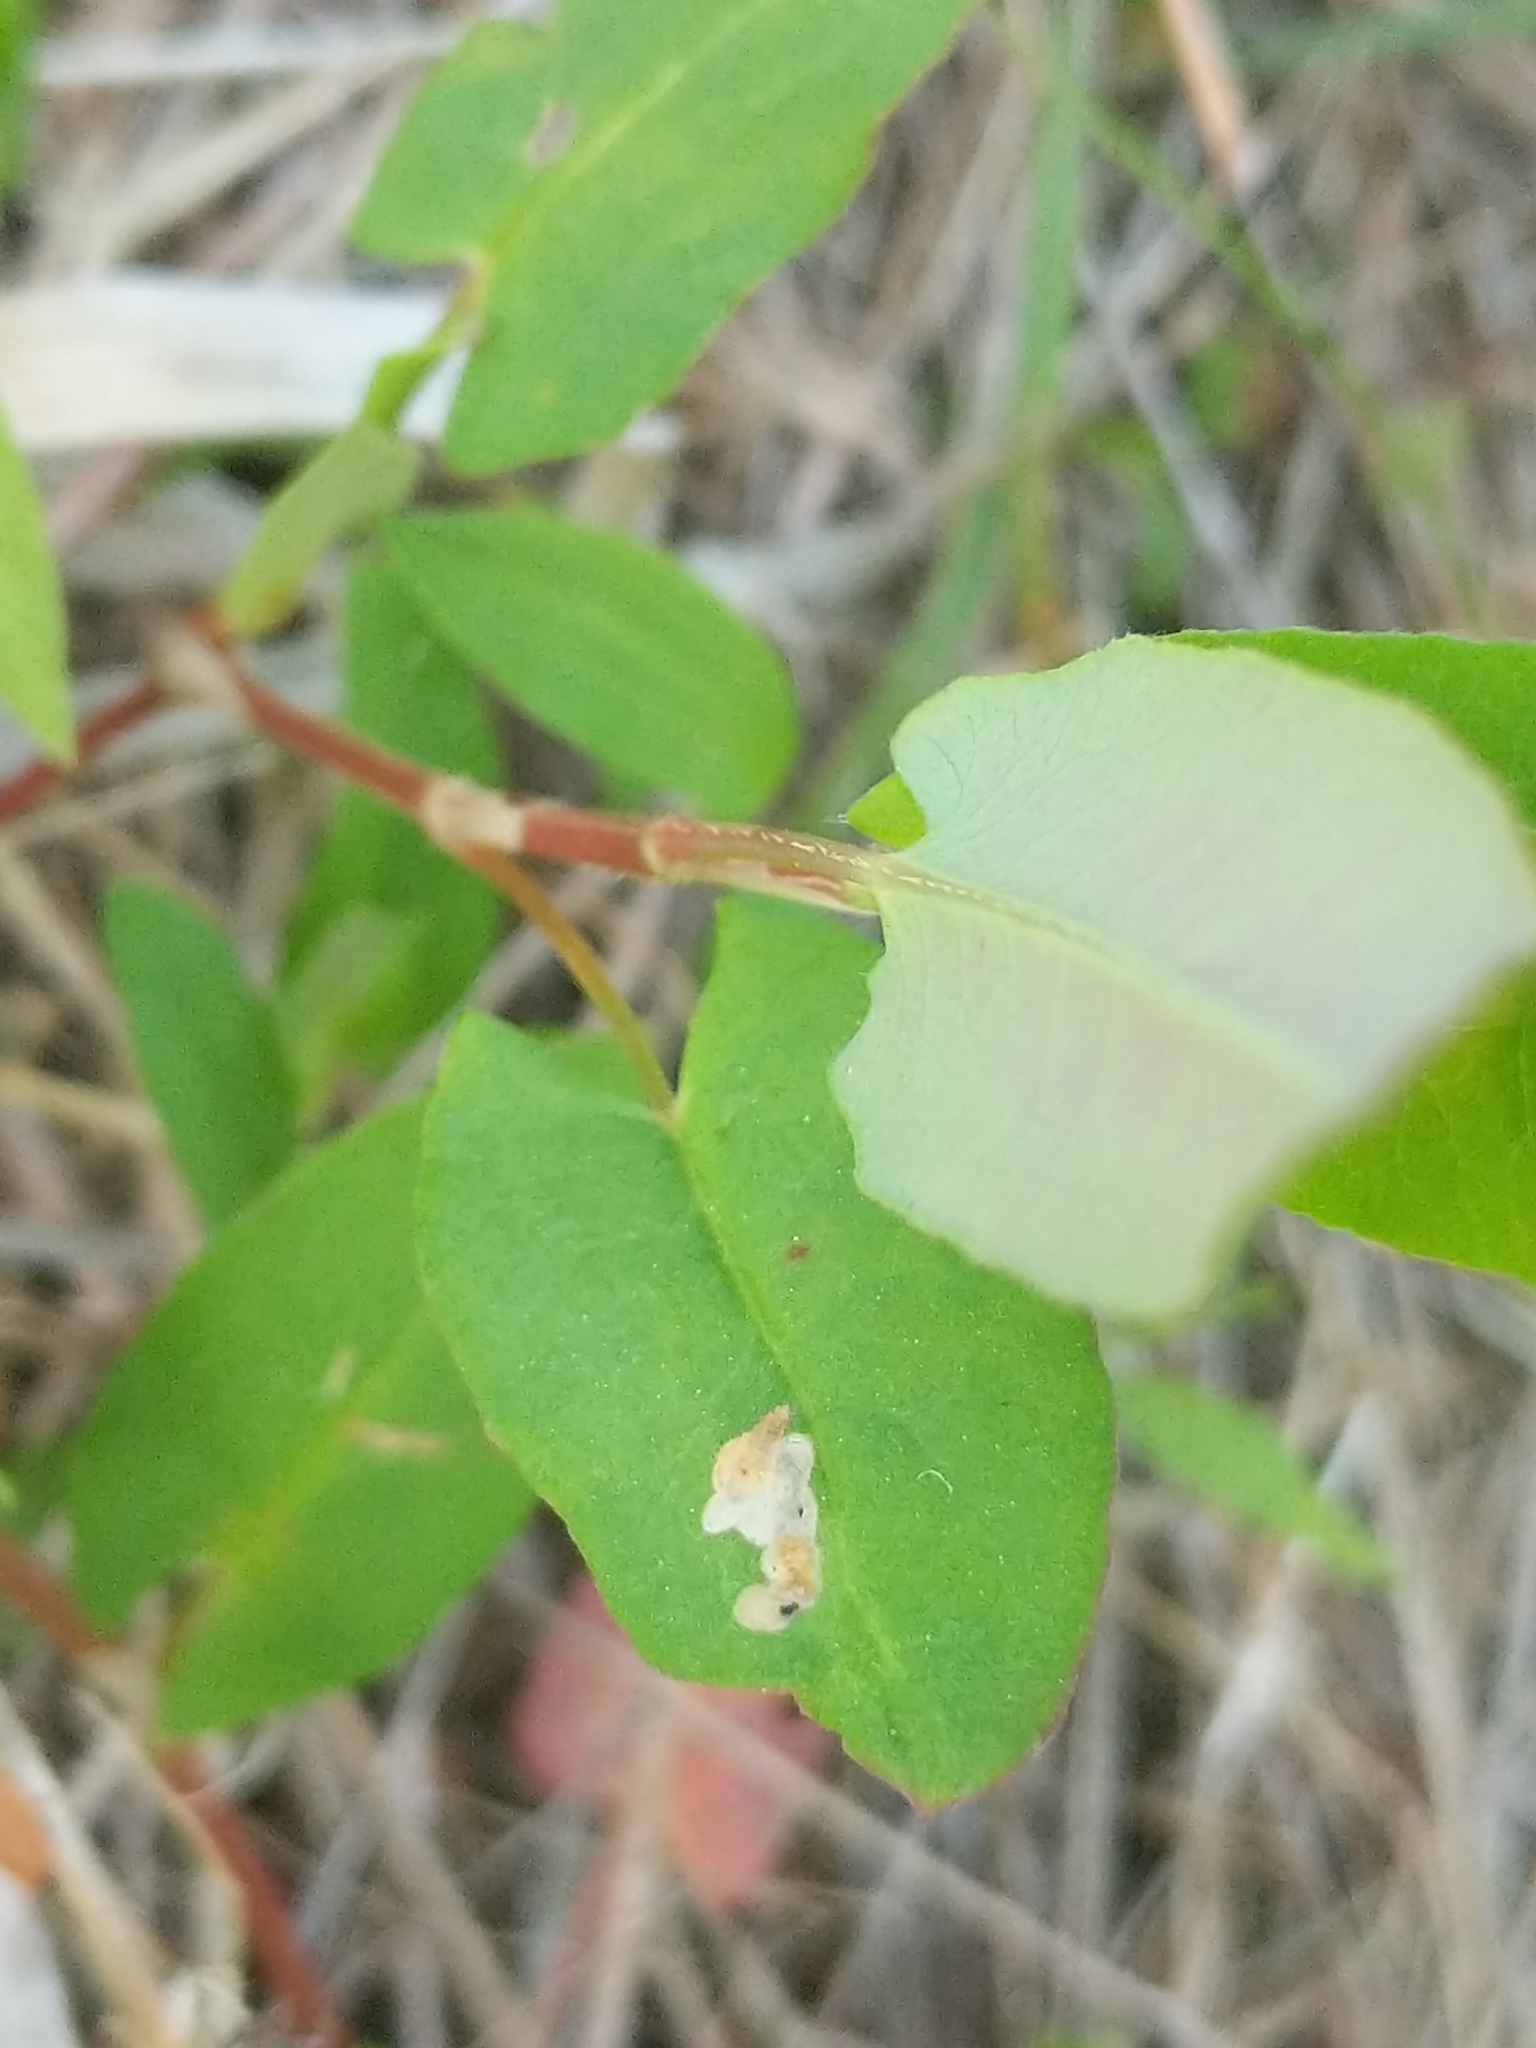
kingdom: Plantae
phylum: Tracheophyta
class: Magnoliopsida
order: Caryophyllales
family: Polygonaceae
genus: Persicaria
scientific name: Persicaria sagittata
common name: American tearthumb
